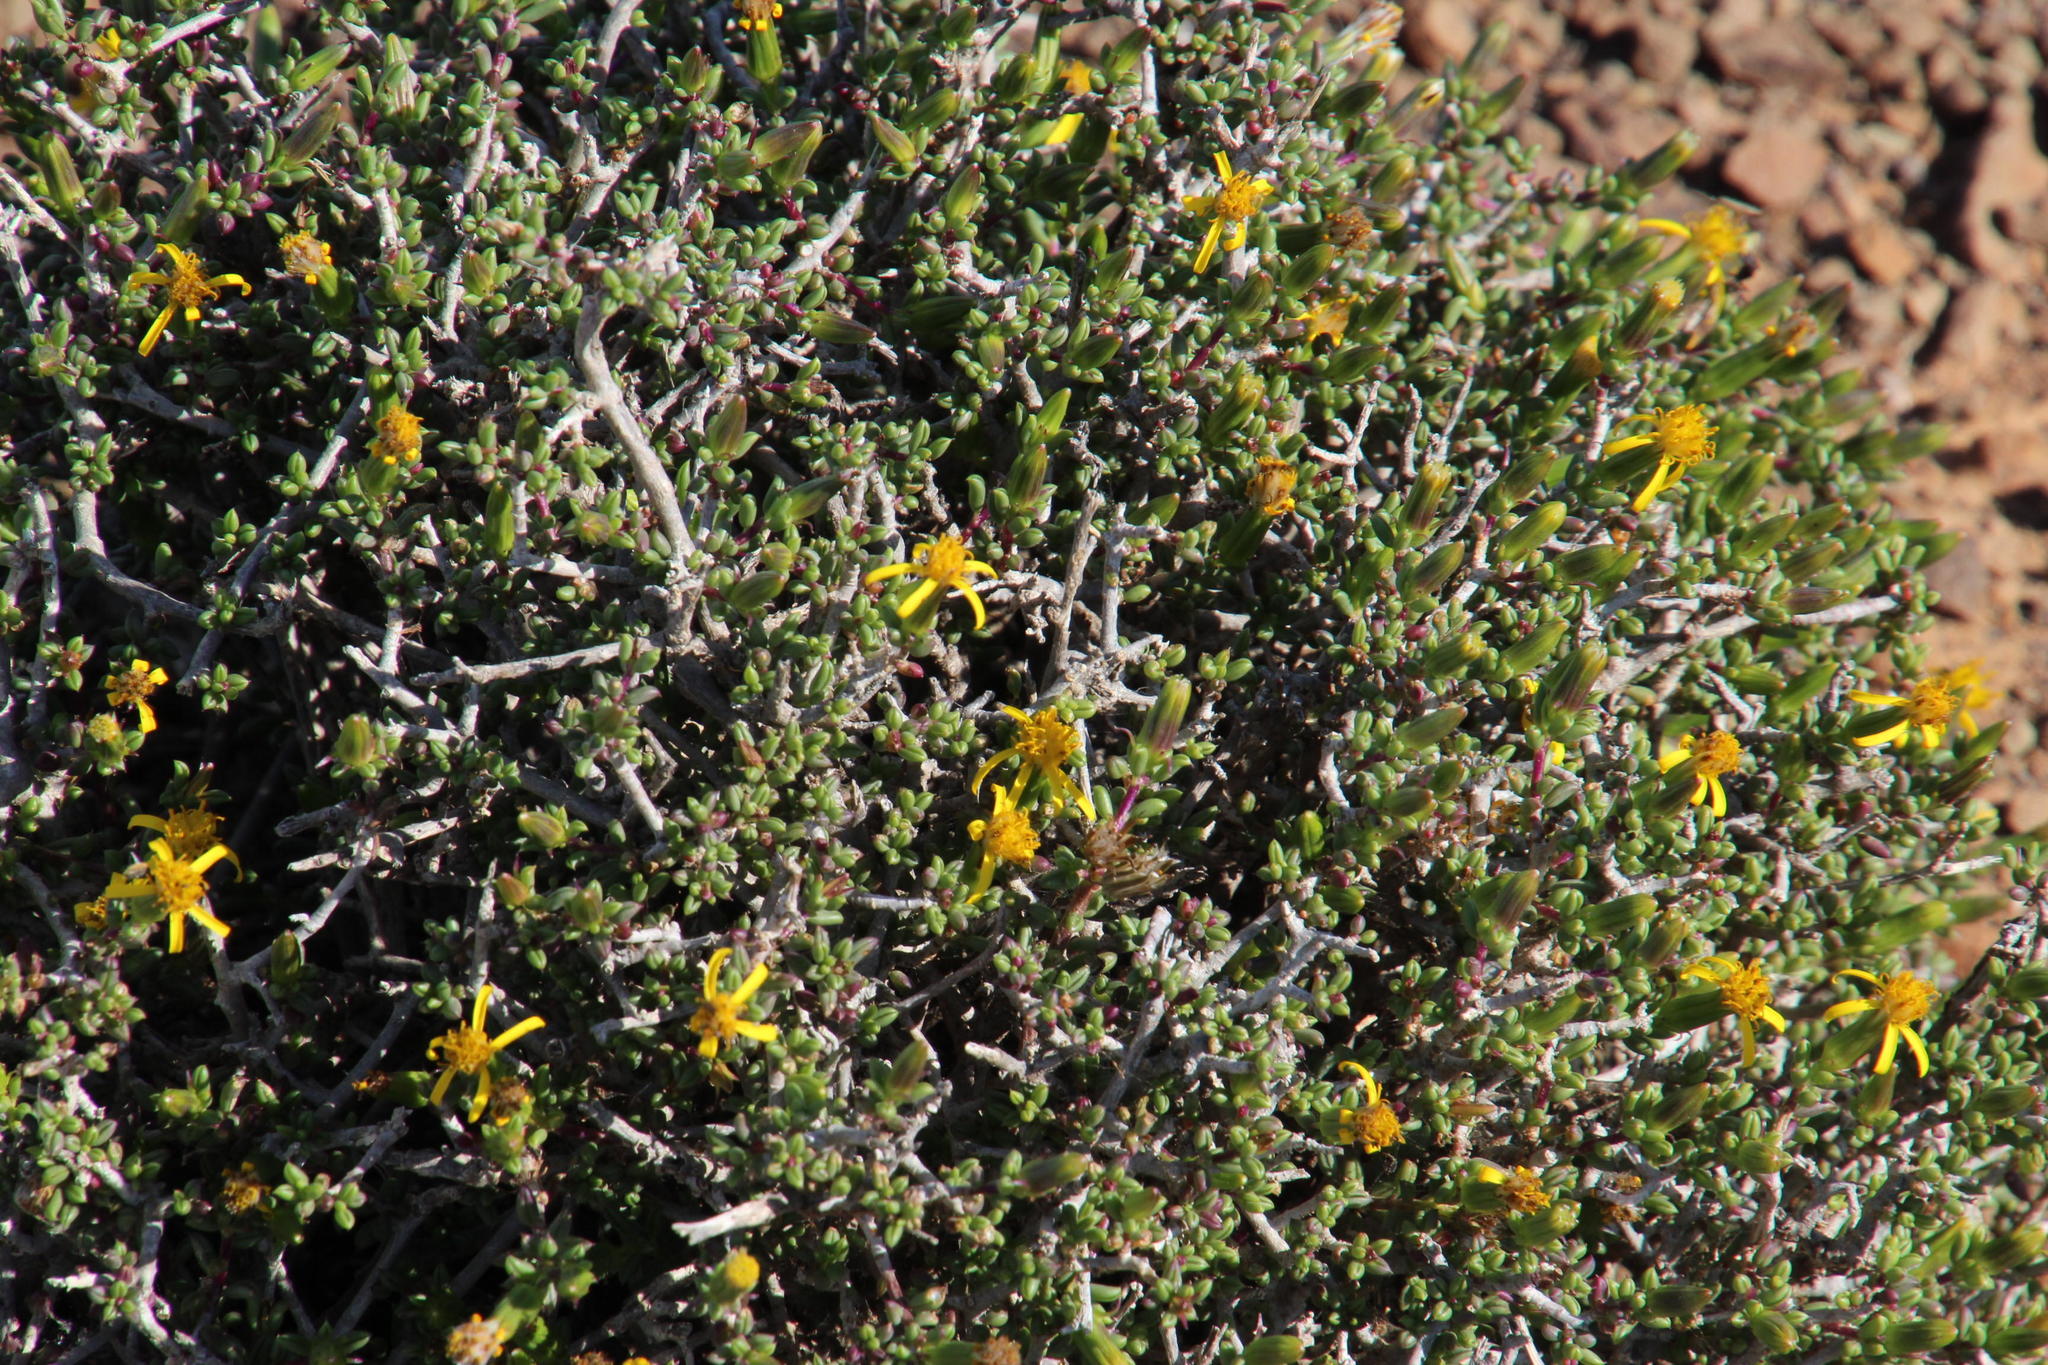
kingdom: Plantae
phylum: Tracheophyta
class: Magnoliopsida
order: Asterales
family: Asteraceae
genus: Senecio
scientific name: Senecio acutifolius
